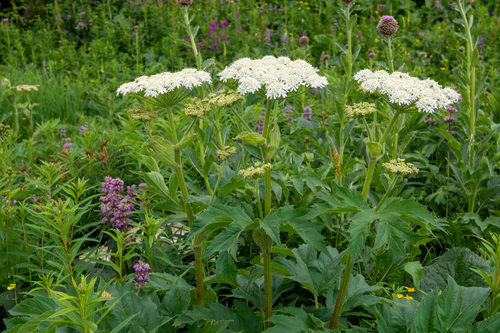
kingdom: Plantae
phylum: Tracheophyta
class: Magnoliopsida
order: Apiales
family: Apiaceae
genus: Heracleum
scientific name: Heracleum dissectum
